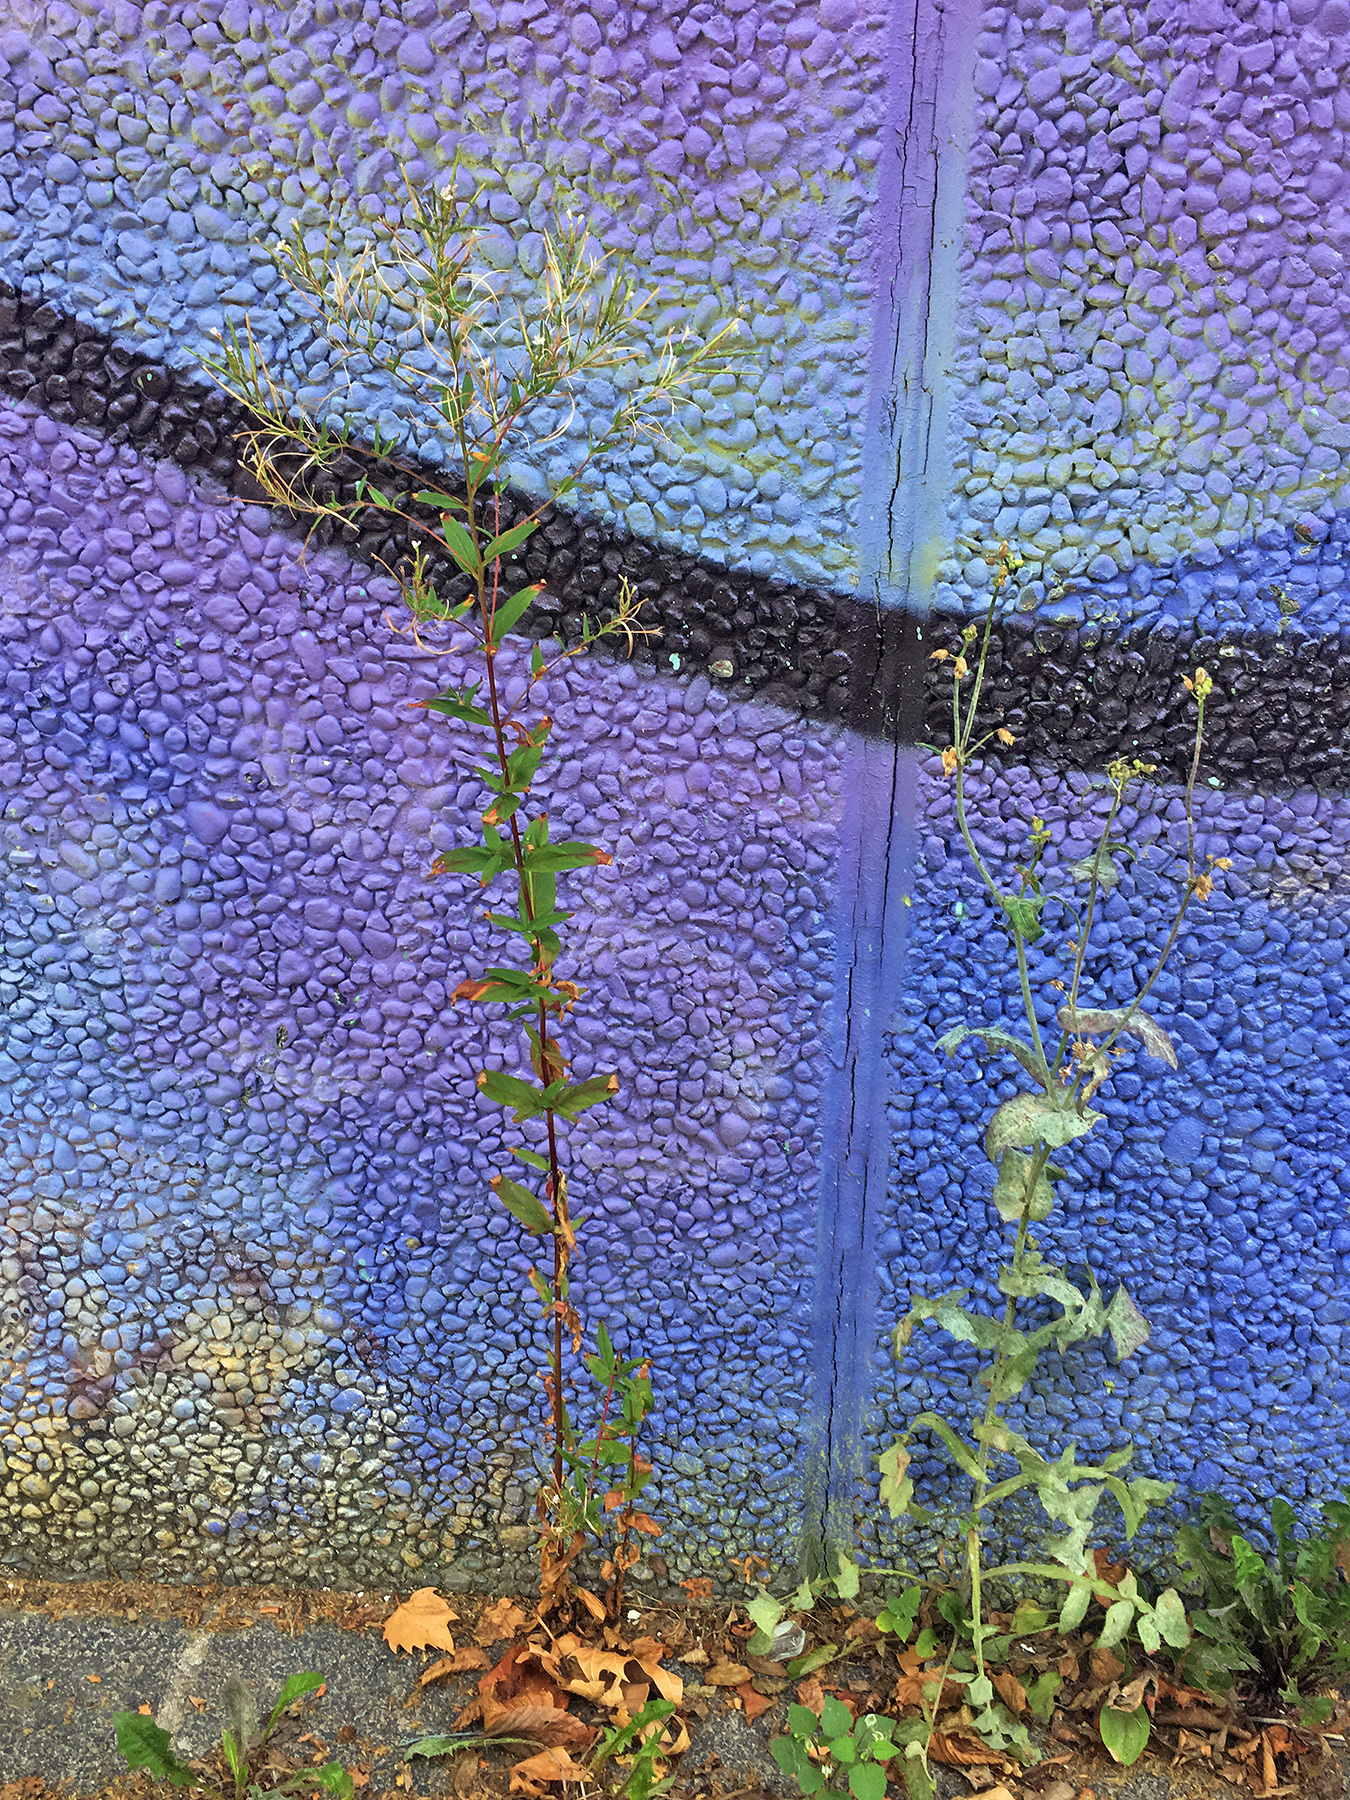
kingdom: Plantae
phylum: Tracheophyta
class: Magnoliopsida
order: Myrtales
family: Onagraceae
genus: Epilobium
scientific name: Epilobium ciliatum
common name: American willowherb
